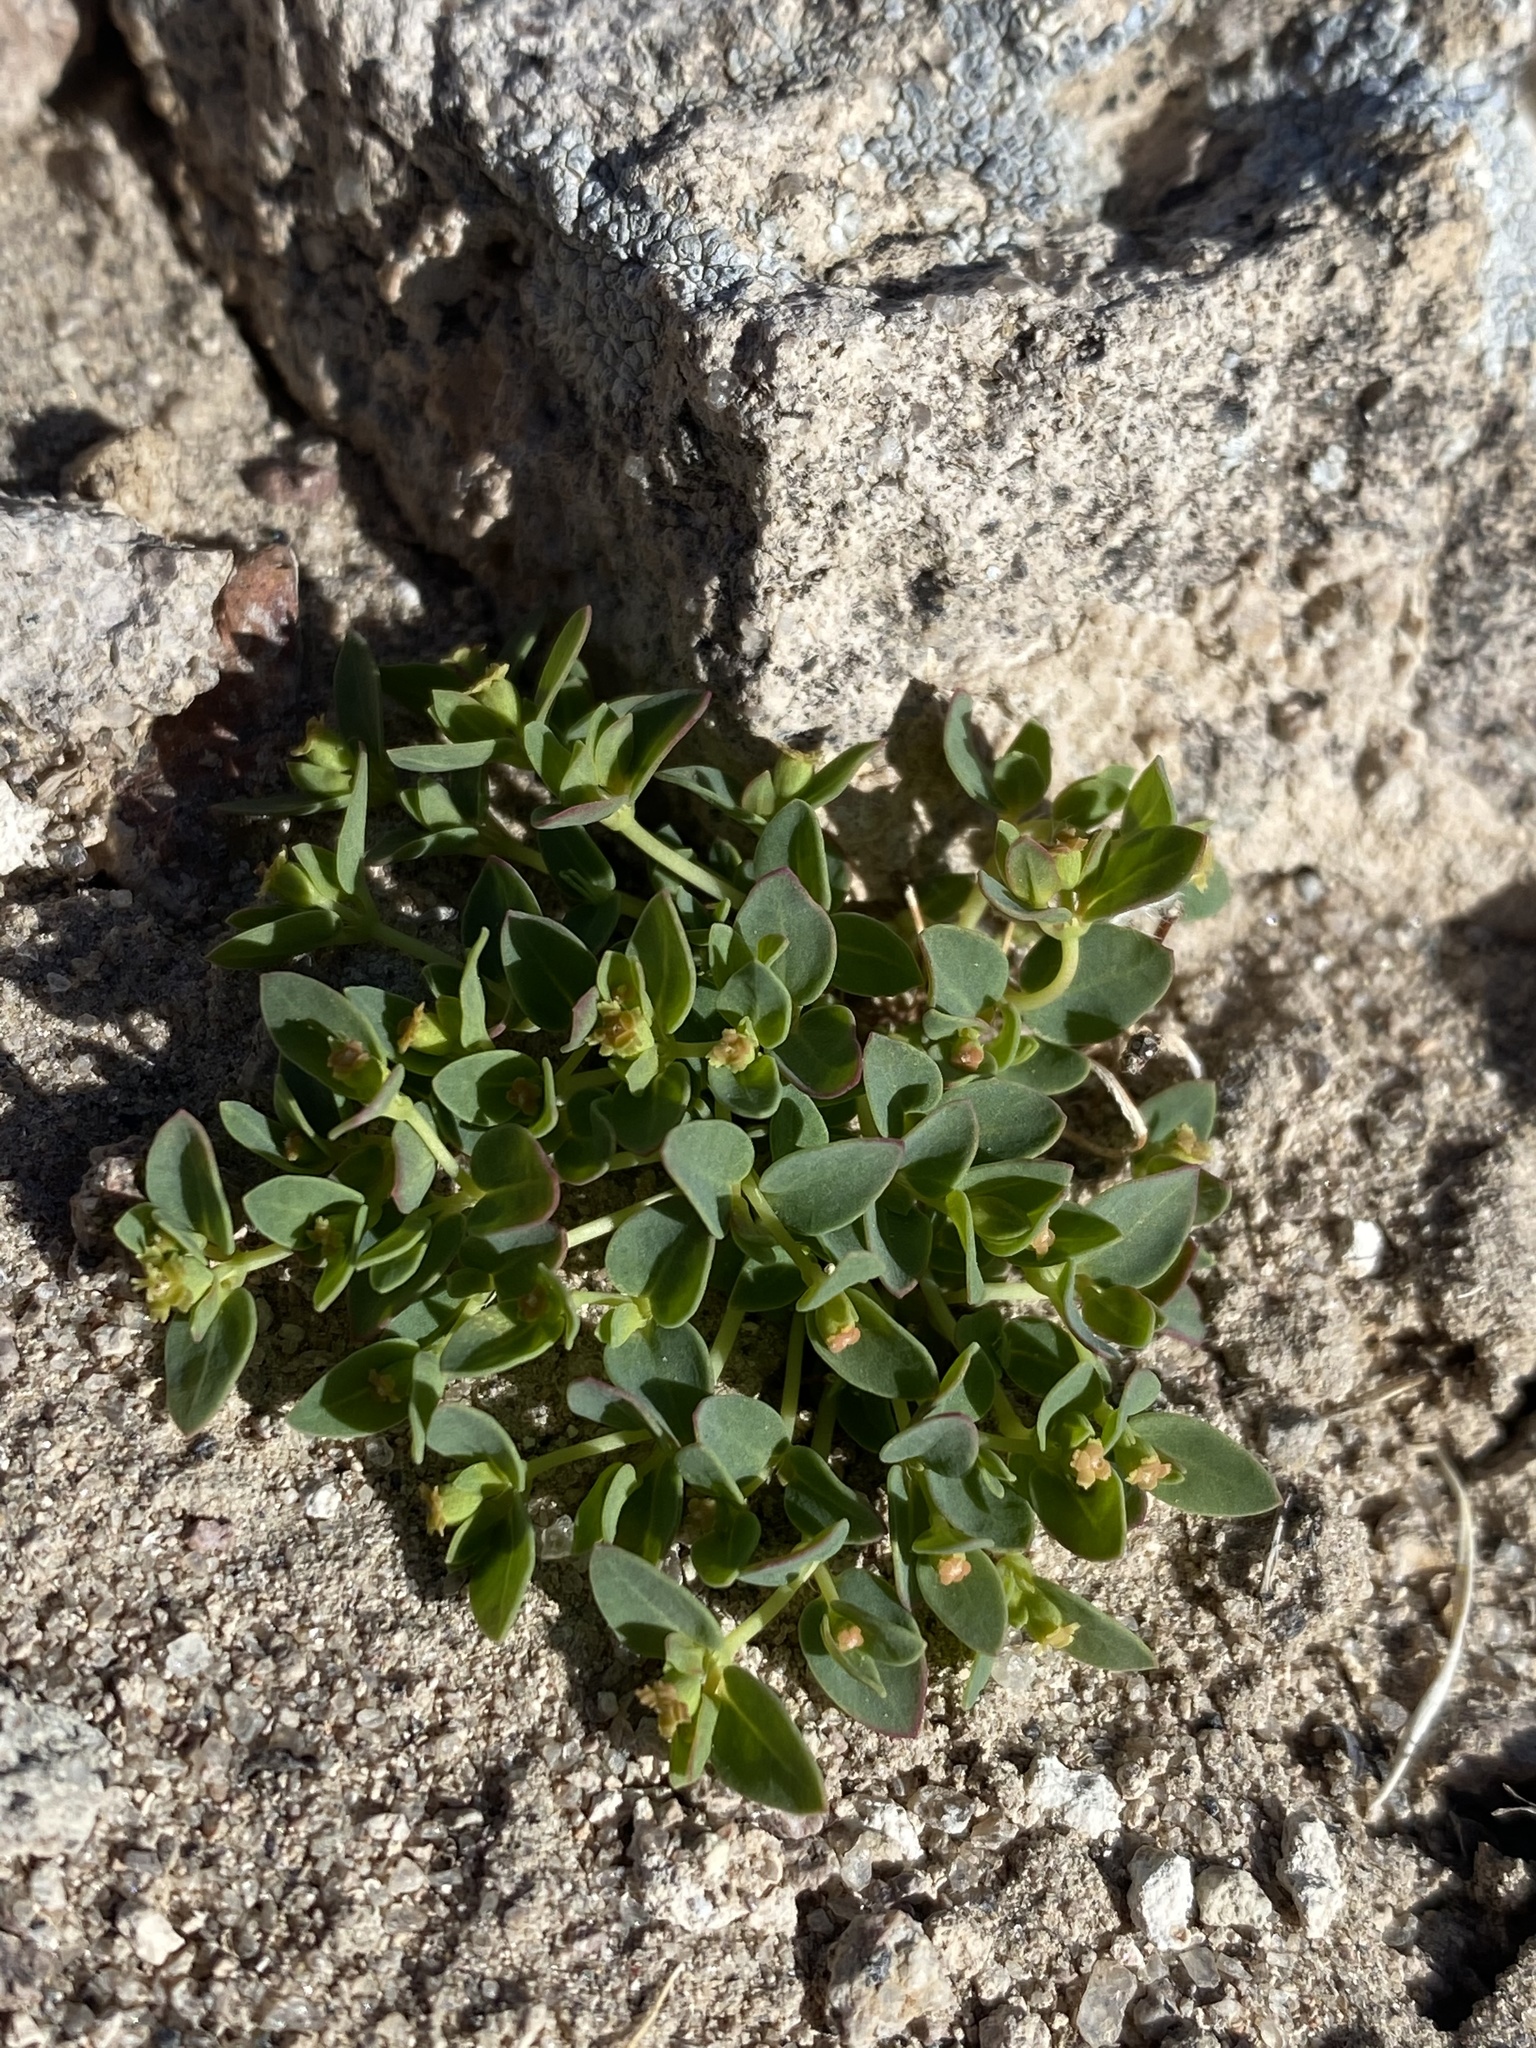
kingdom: Plantae
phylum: Tracheophyta
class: Magnoliopsida
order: Malpighiales
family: Euphorbiaceae
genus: Euphorbia
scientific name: Euphorbia fendleri
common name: Fendler's euphorbia
